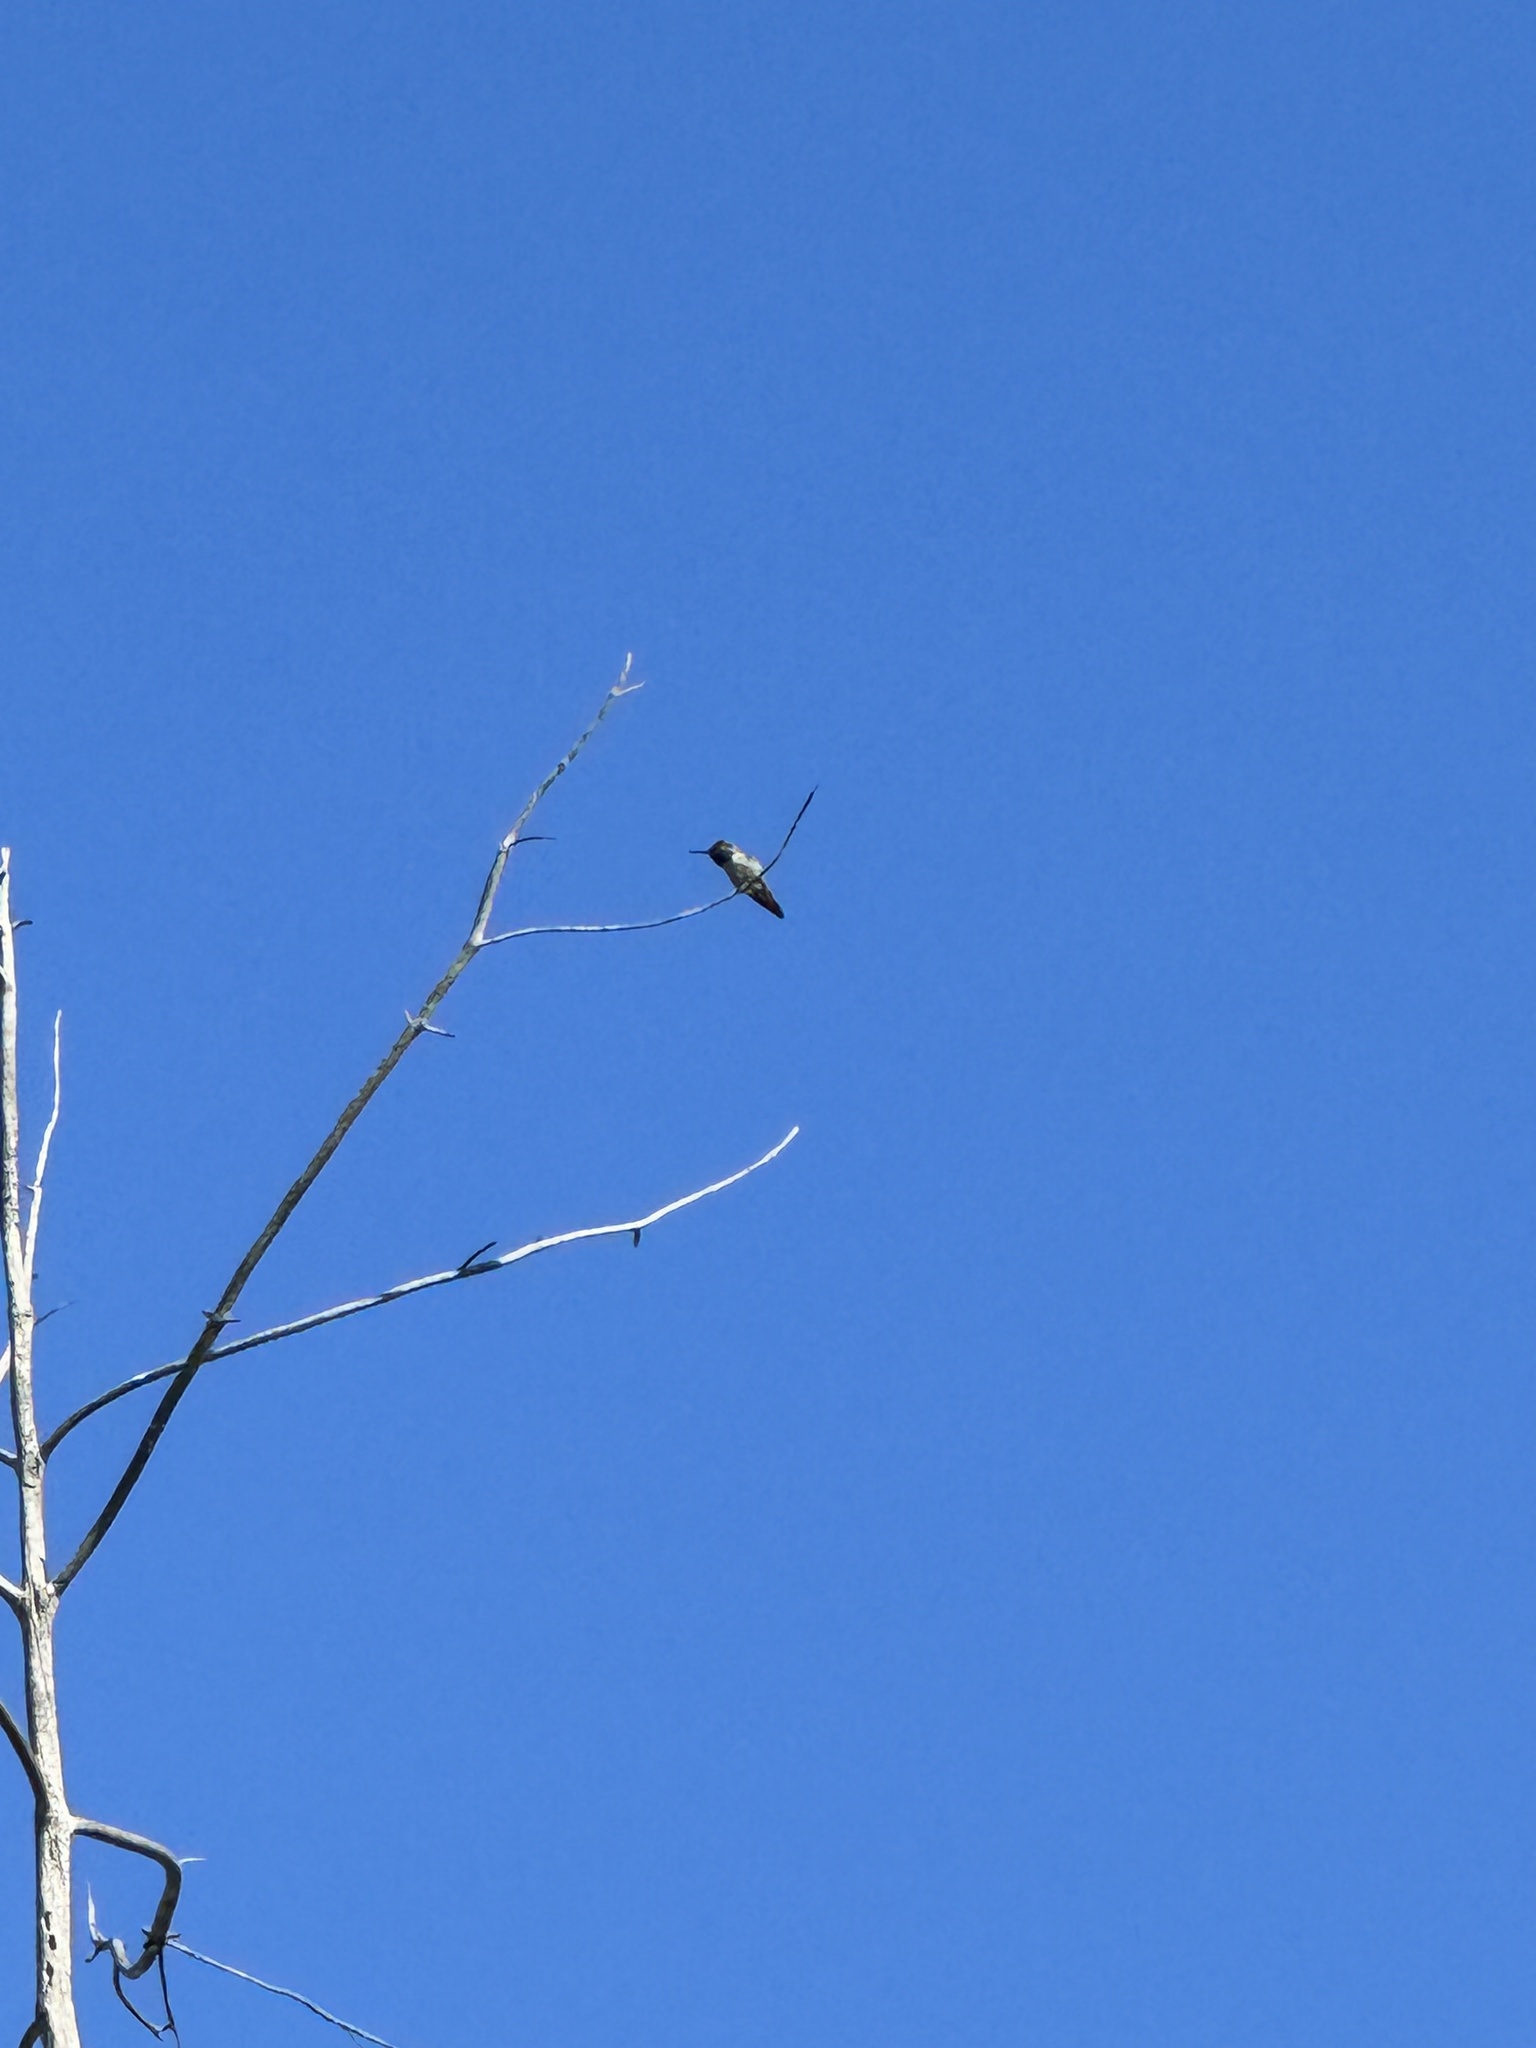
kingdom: Animalia
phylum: Chordata
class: Aves
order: Apodiformes
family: Trochilidae
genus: Calypte
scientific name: Calypte anna
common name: Anna's hummingbird
